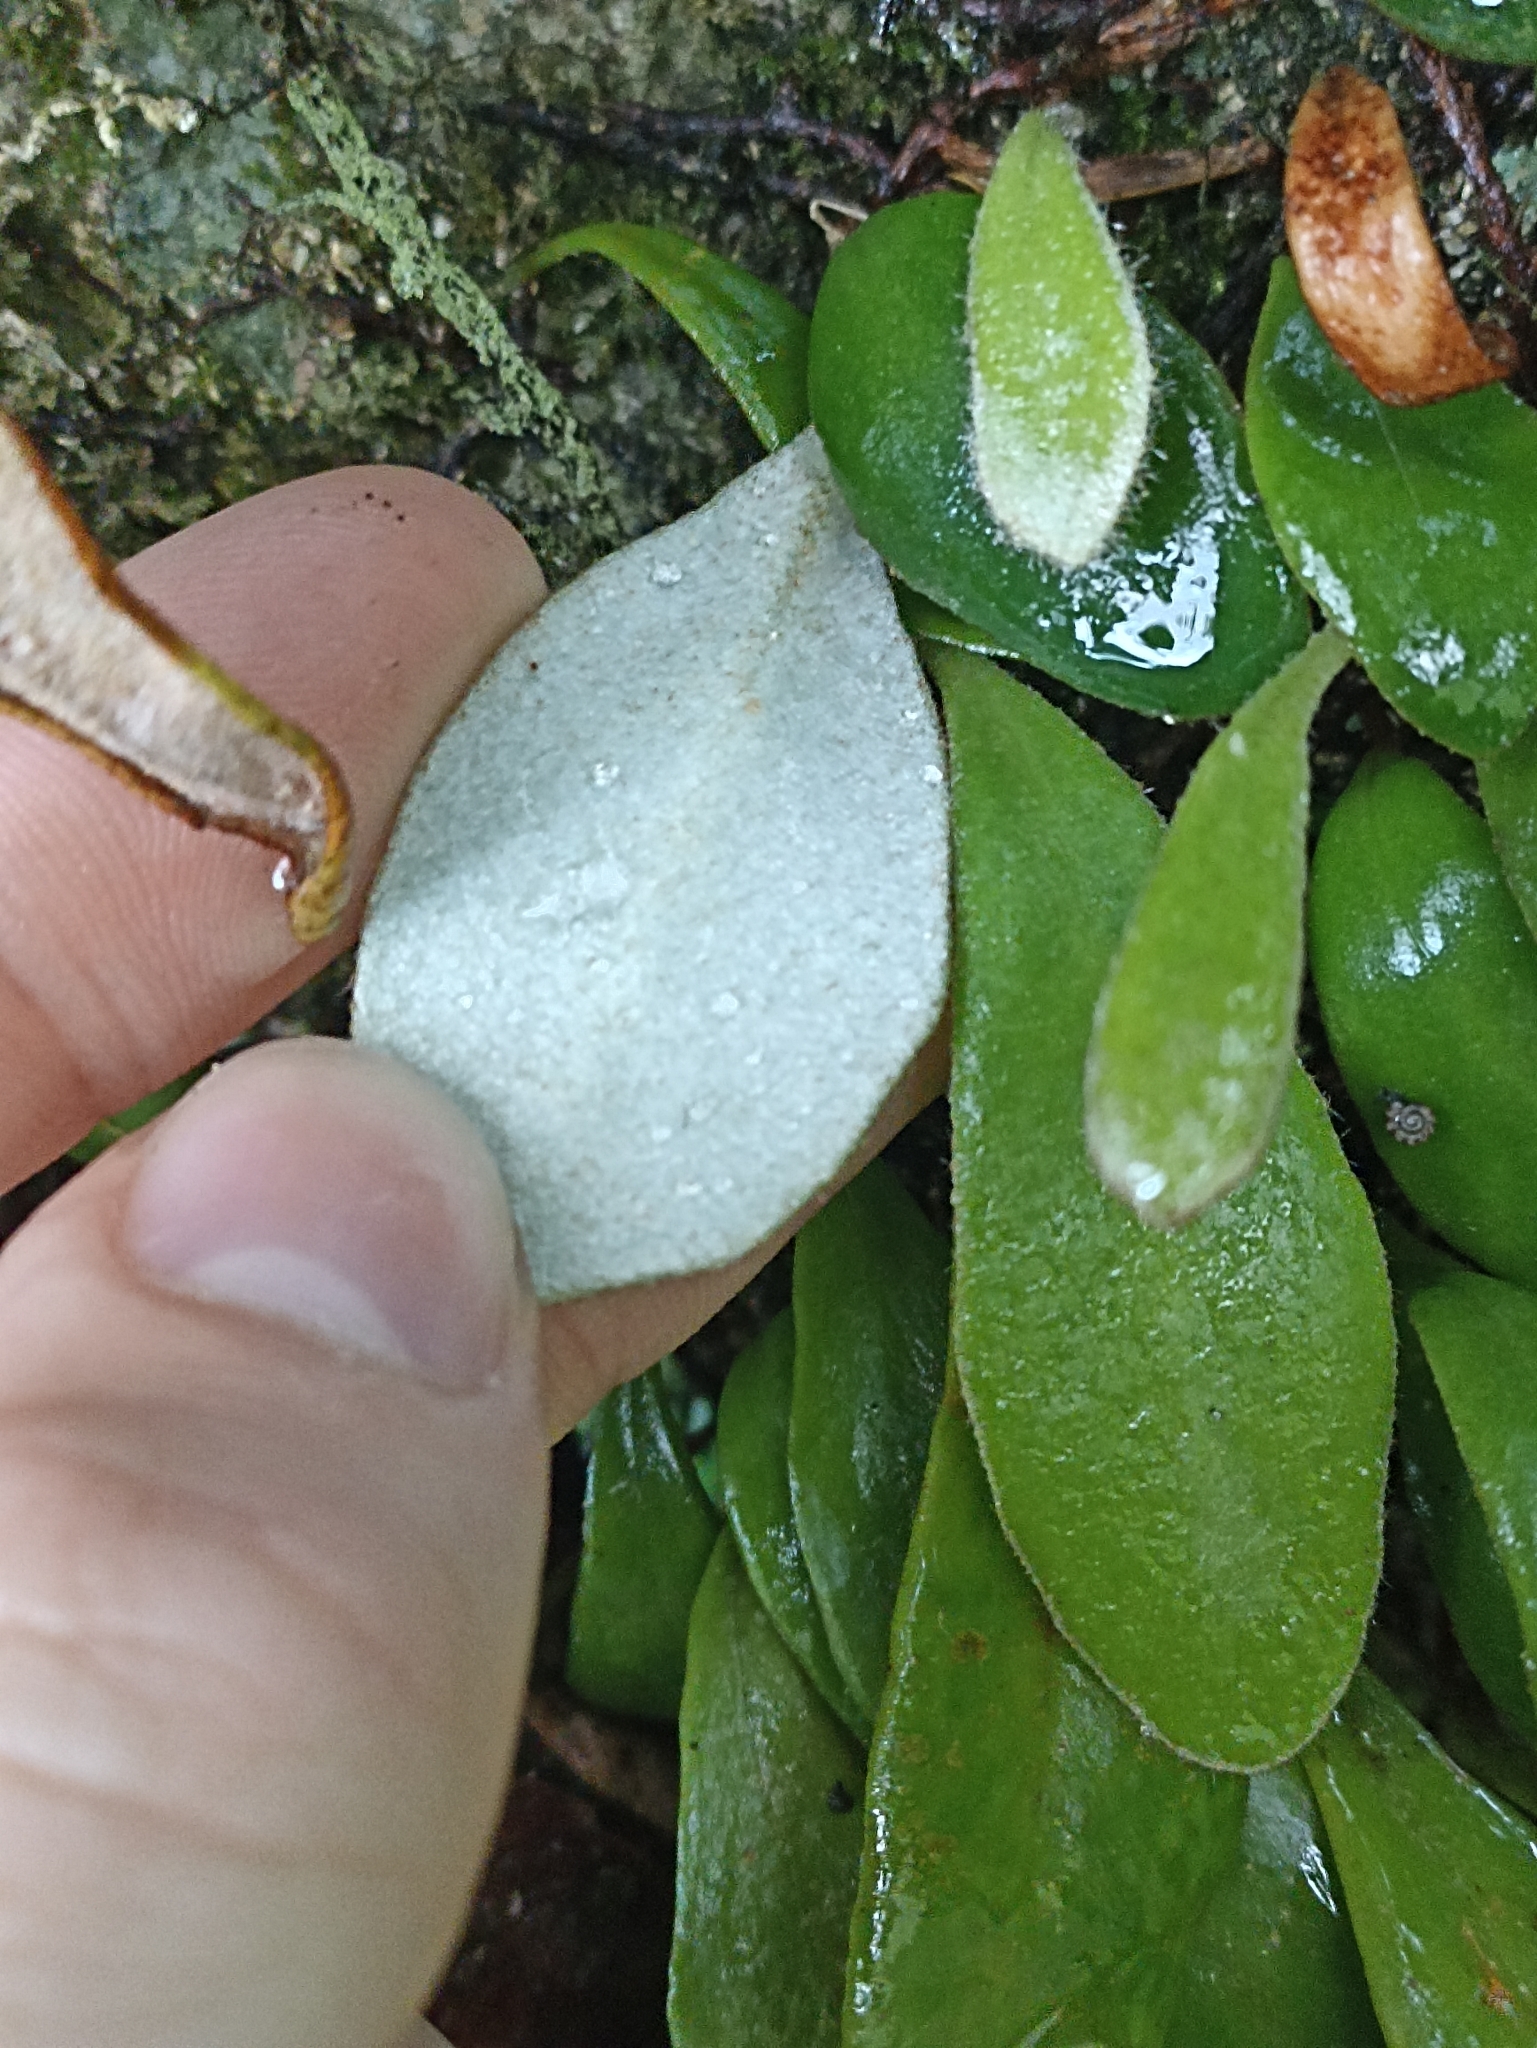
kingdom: Plantae
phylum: Tracheophyta
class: Polypodiopsida
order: Polypodiales
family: Polypodiaceae
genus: Pyrrosia
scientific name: Pyrrosia eleagnifolia
